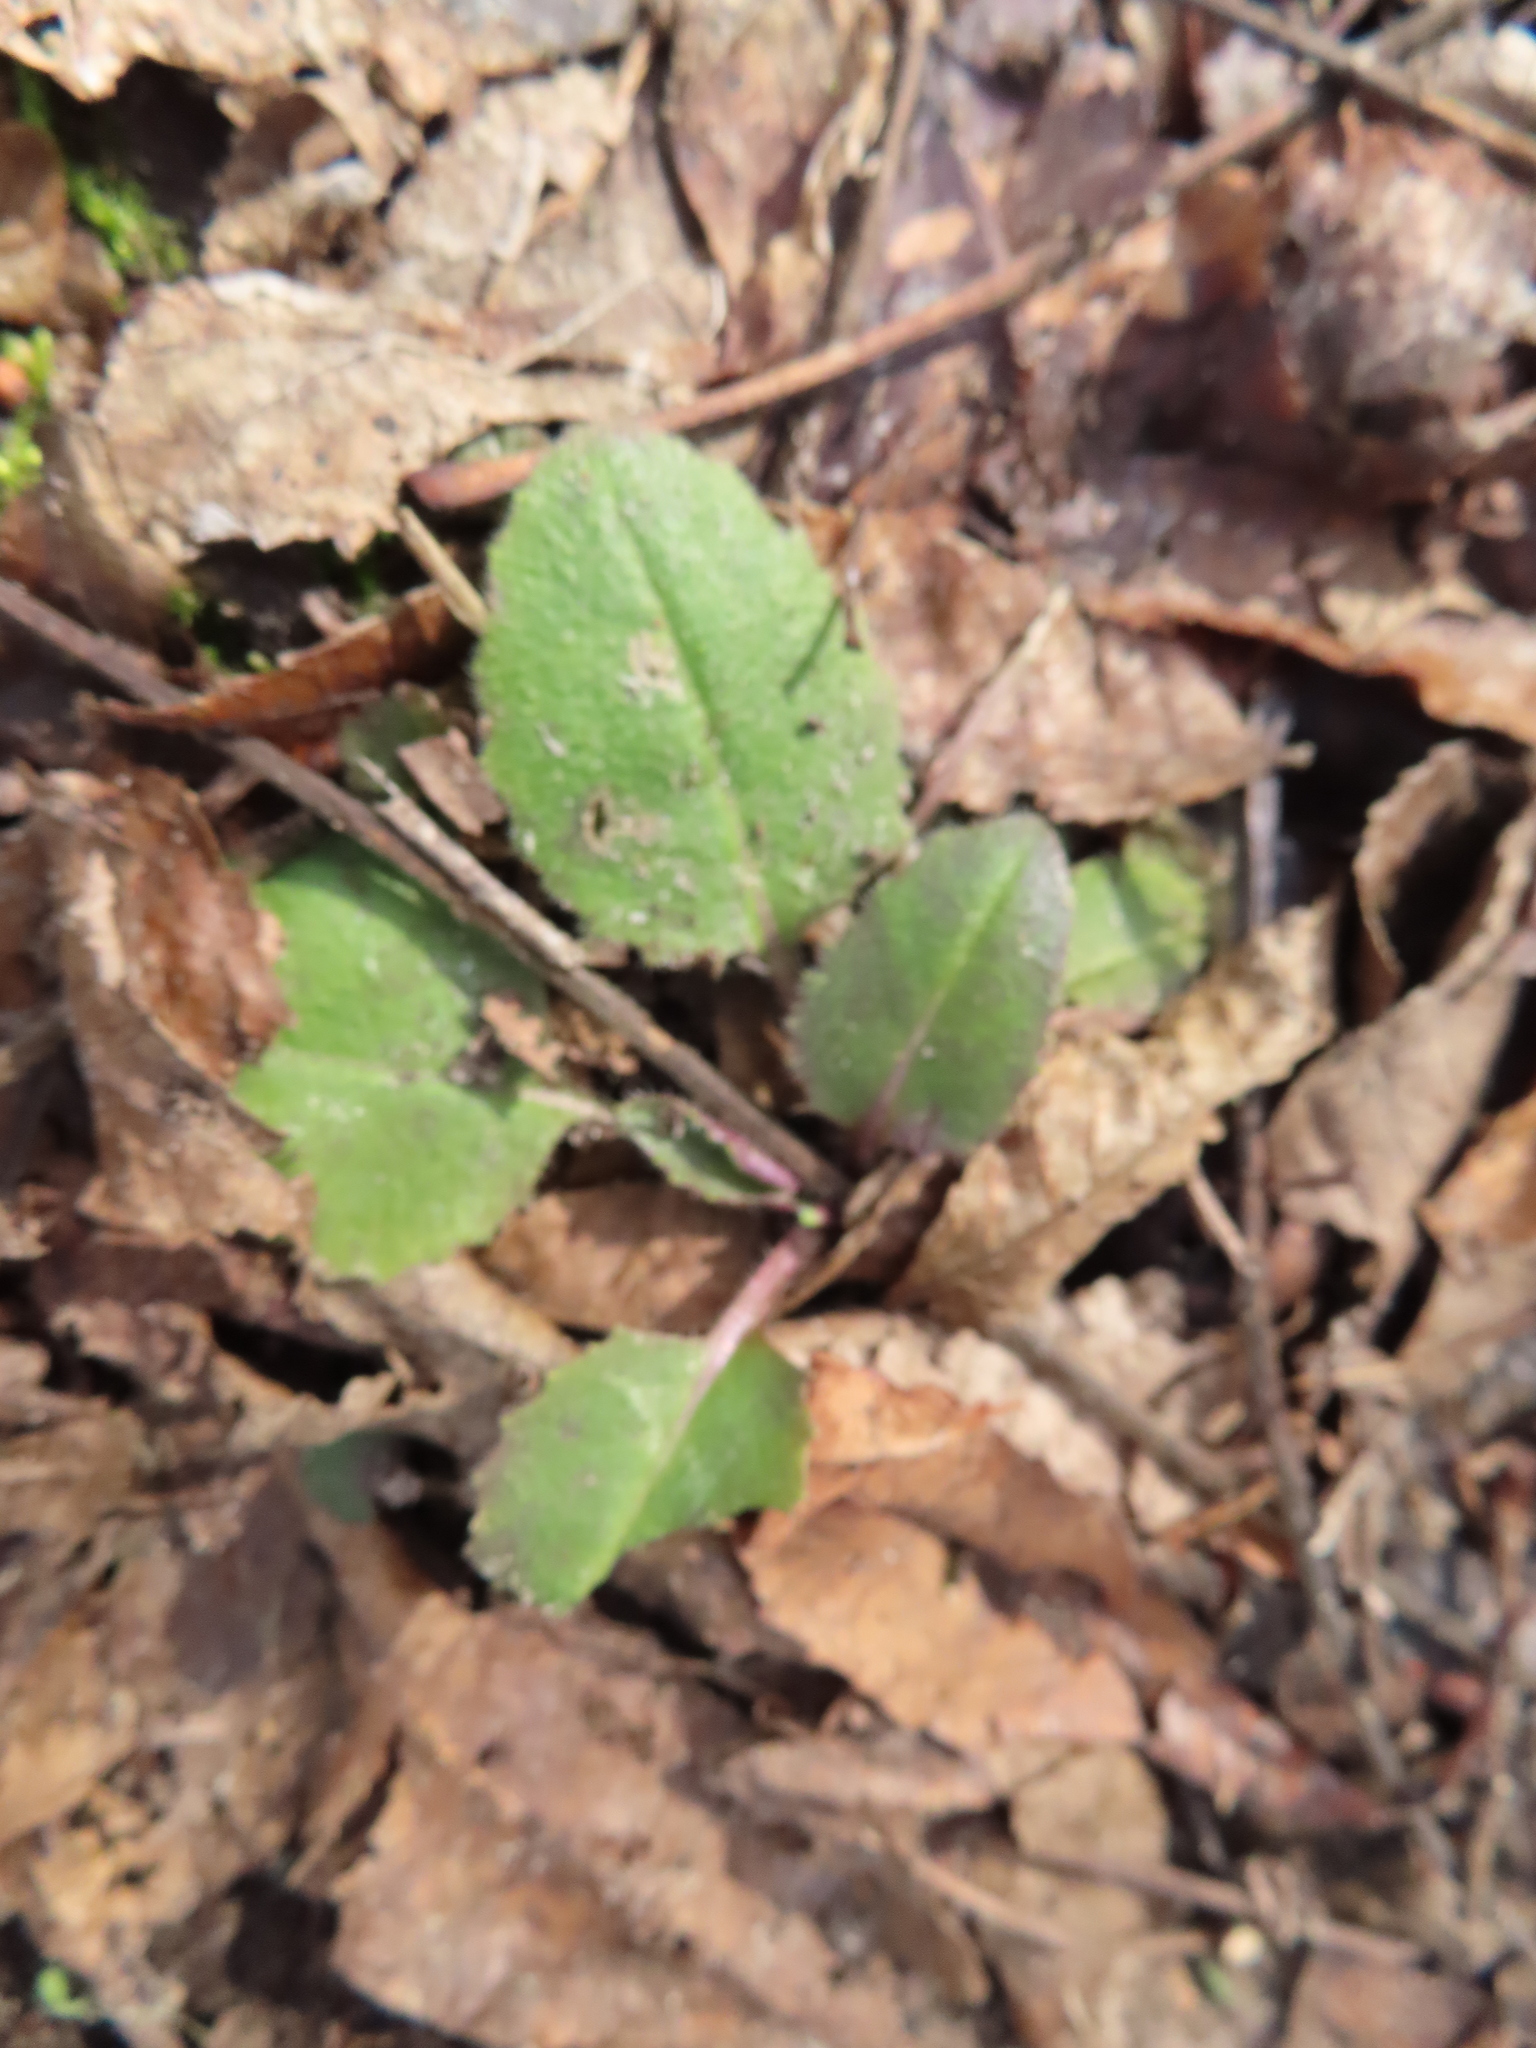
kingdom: Plantae
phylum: Tracheophyta
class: Magnoliopsida
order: Brassicales
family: Brassicaceae
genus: Hesperis
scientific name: Hesperis matronalis
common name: Dame's-violet
